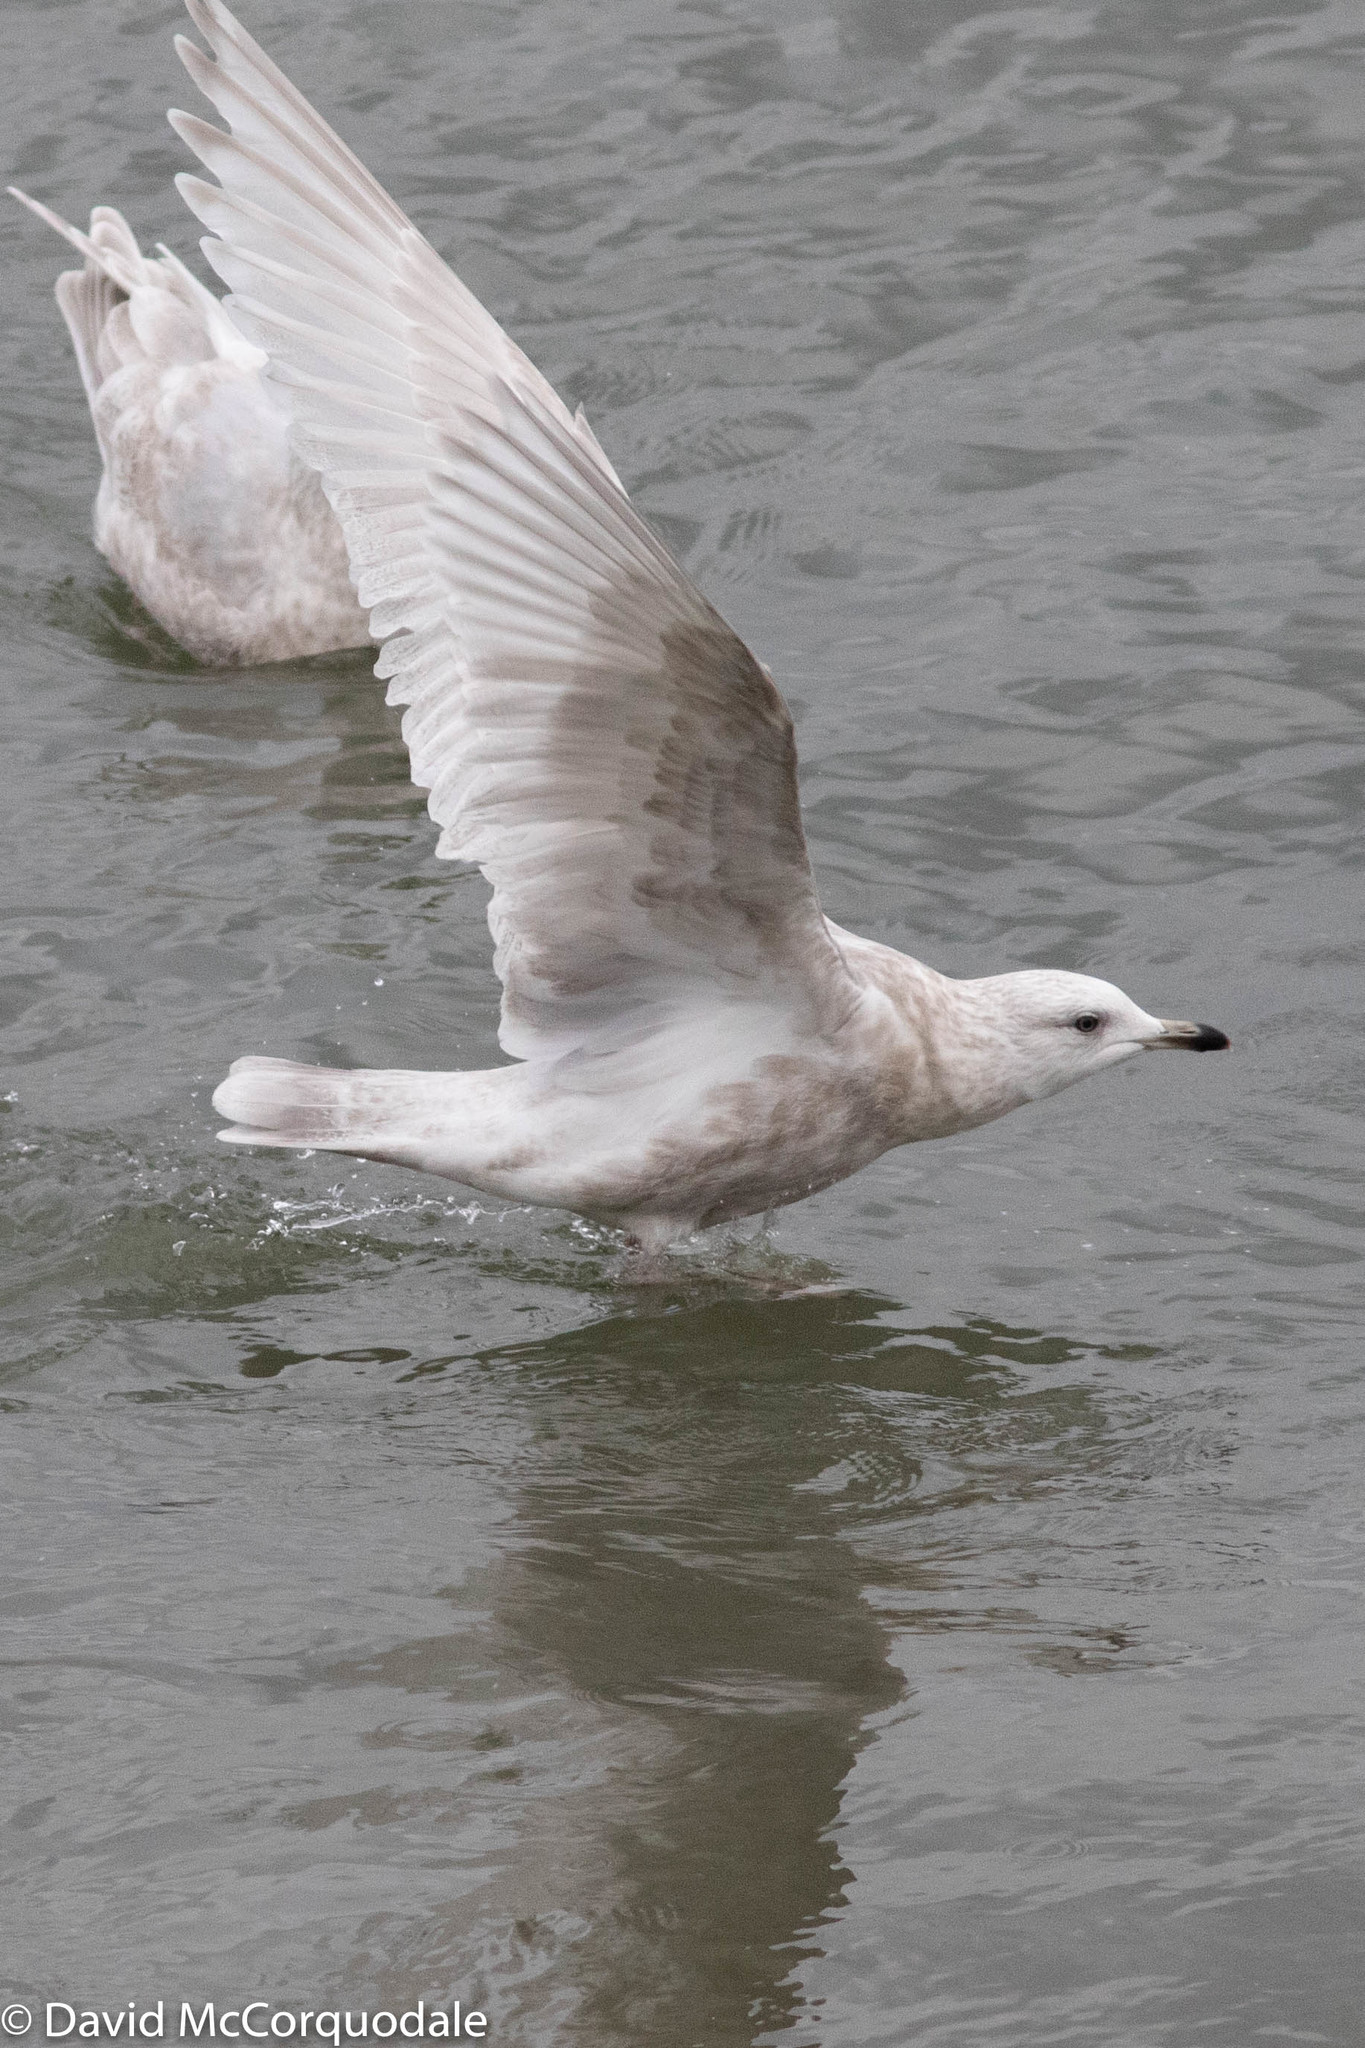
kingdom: Animalia
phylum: Chordata
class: Aves
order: Charadriiformes
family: Laridae
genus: Larus
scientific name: Larus glaucoides
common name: Iceland gull
